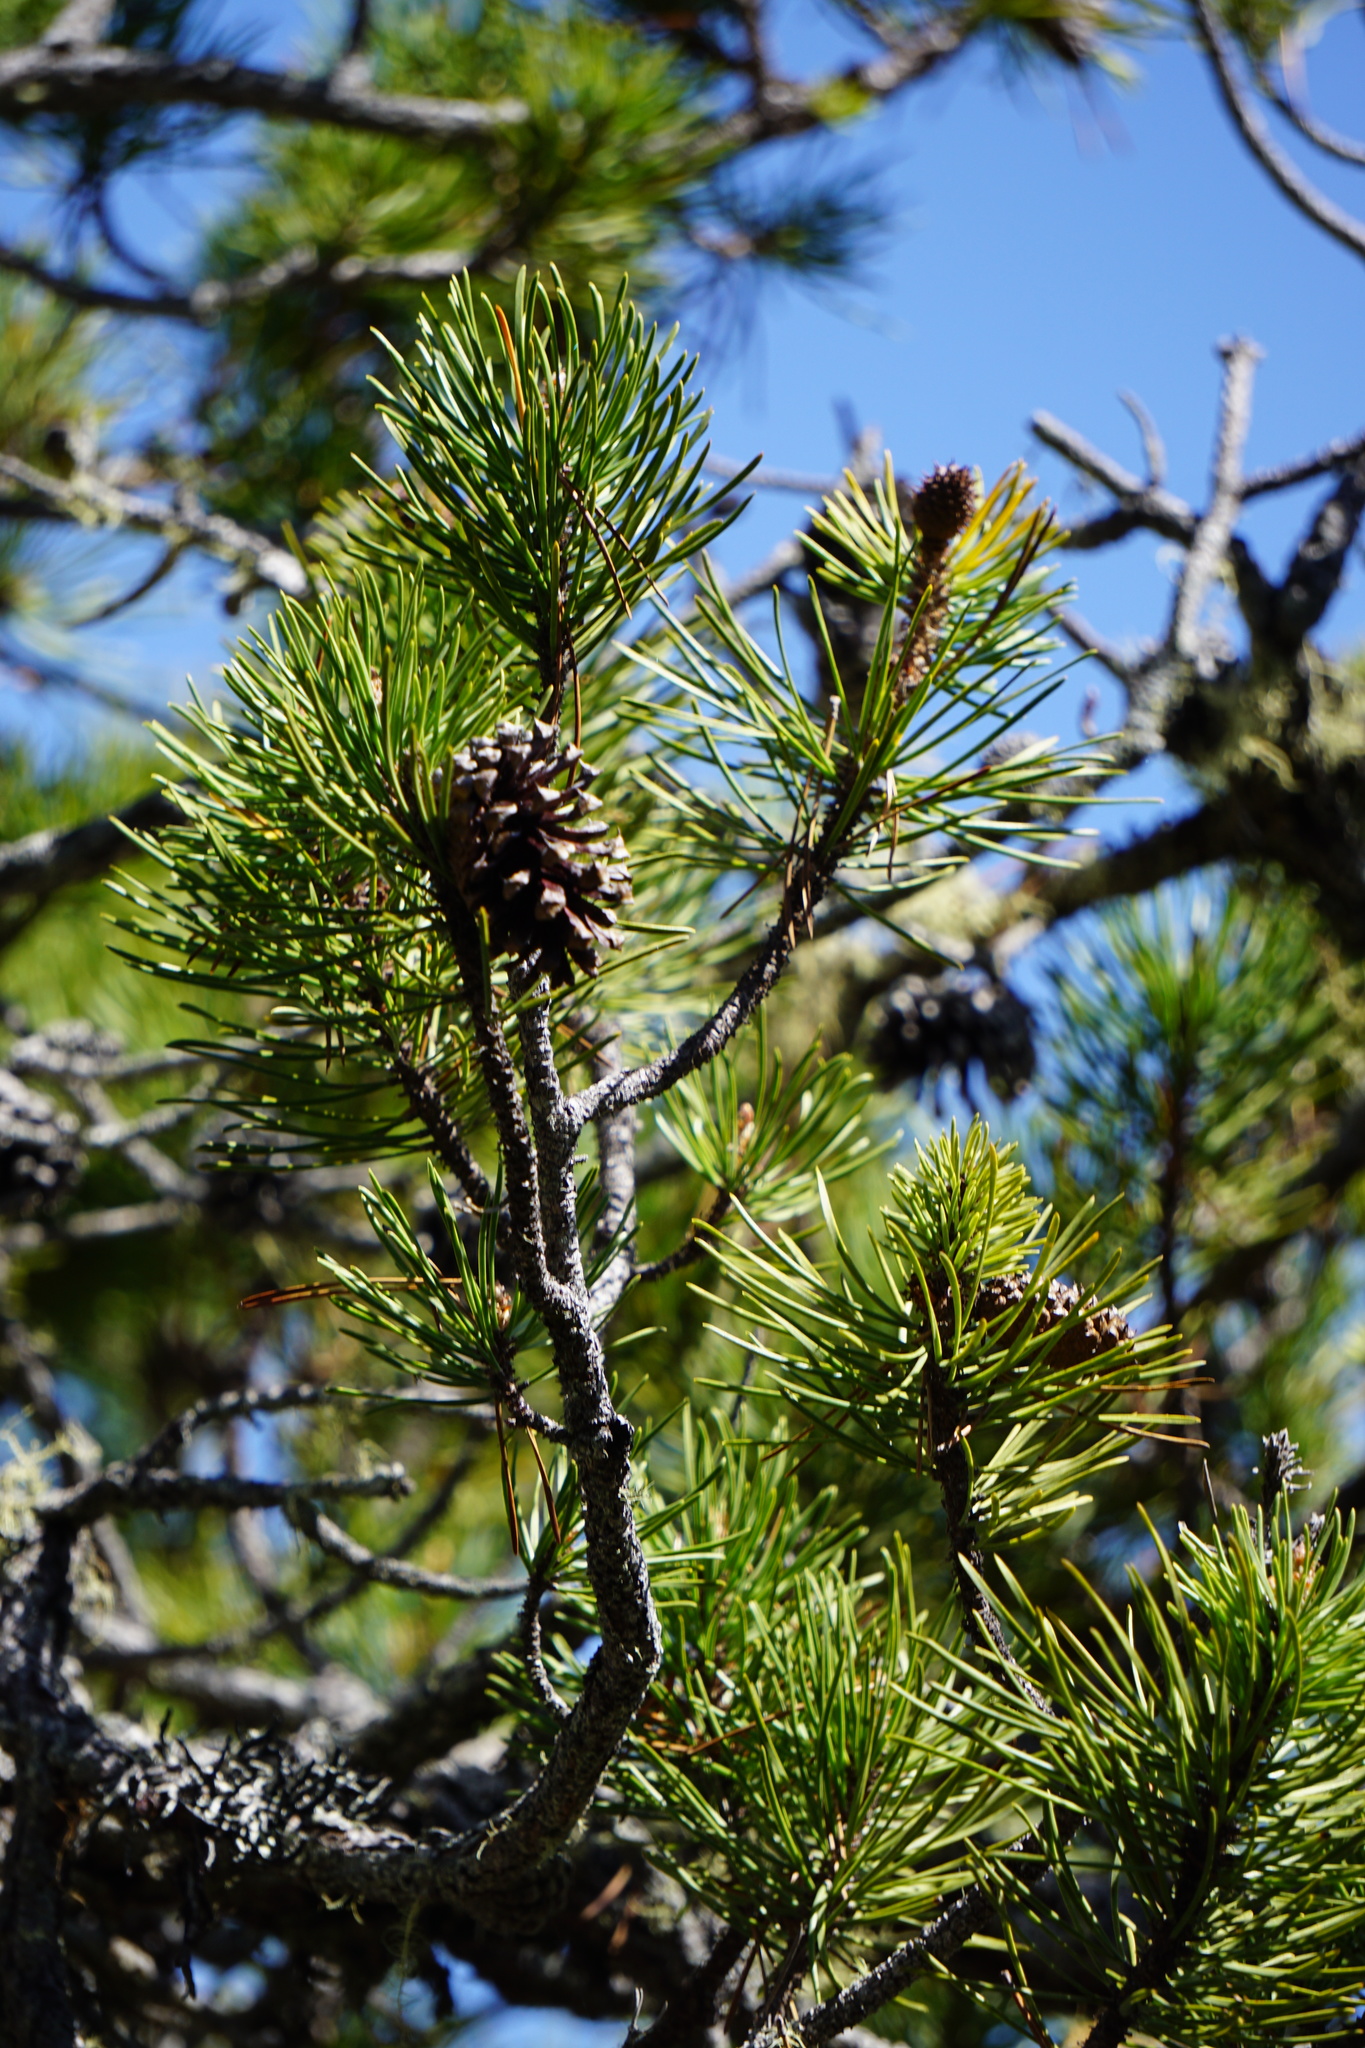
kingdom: Plantae
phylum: Tracheophyta
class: Pinopsida
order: Pinales
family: Pinaceae
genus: Pinus
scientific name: Pinus contorta
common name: Lodgepole pine
